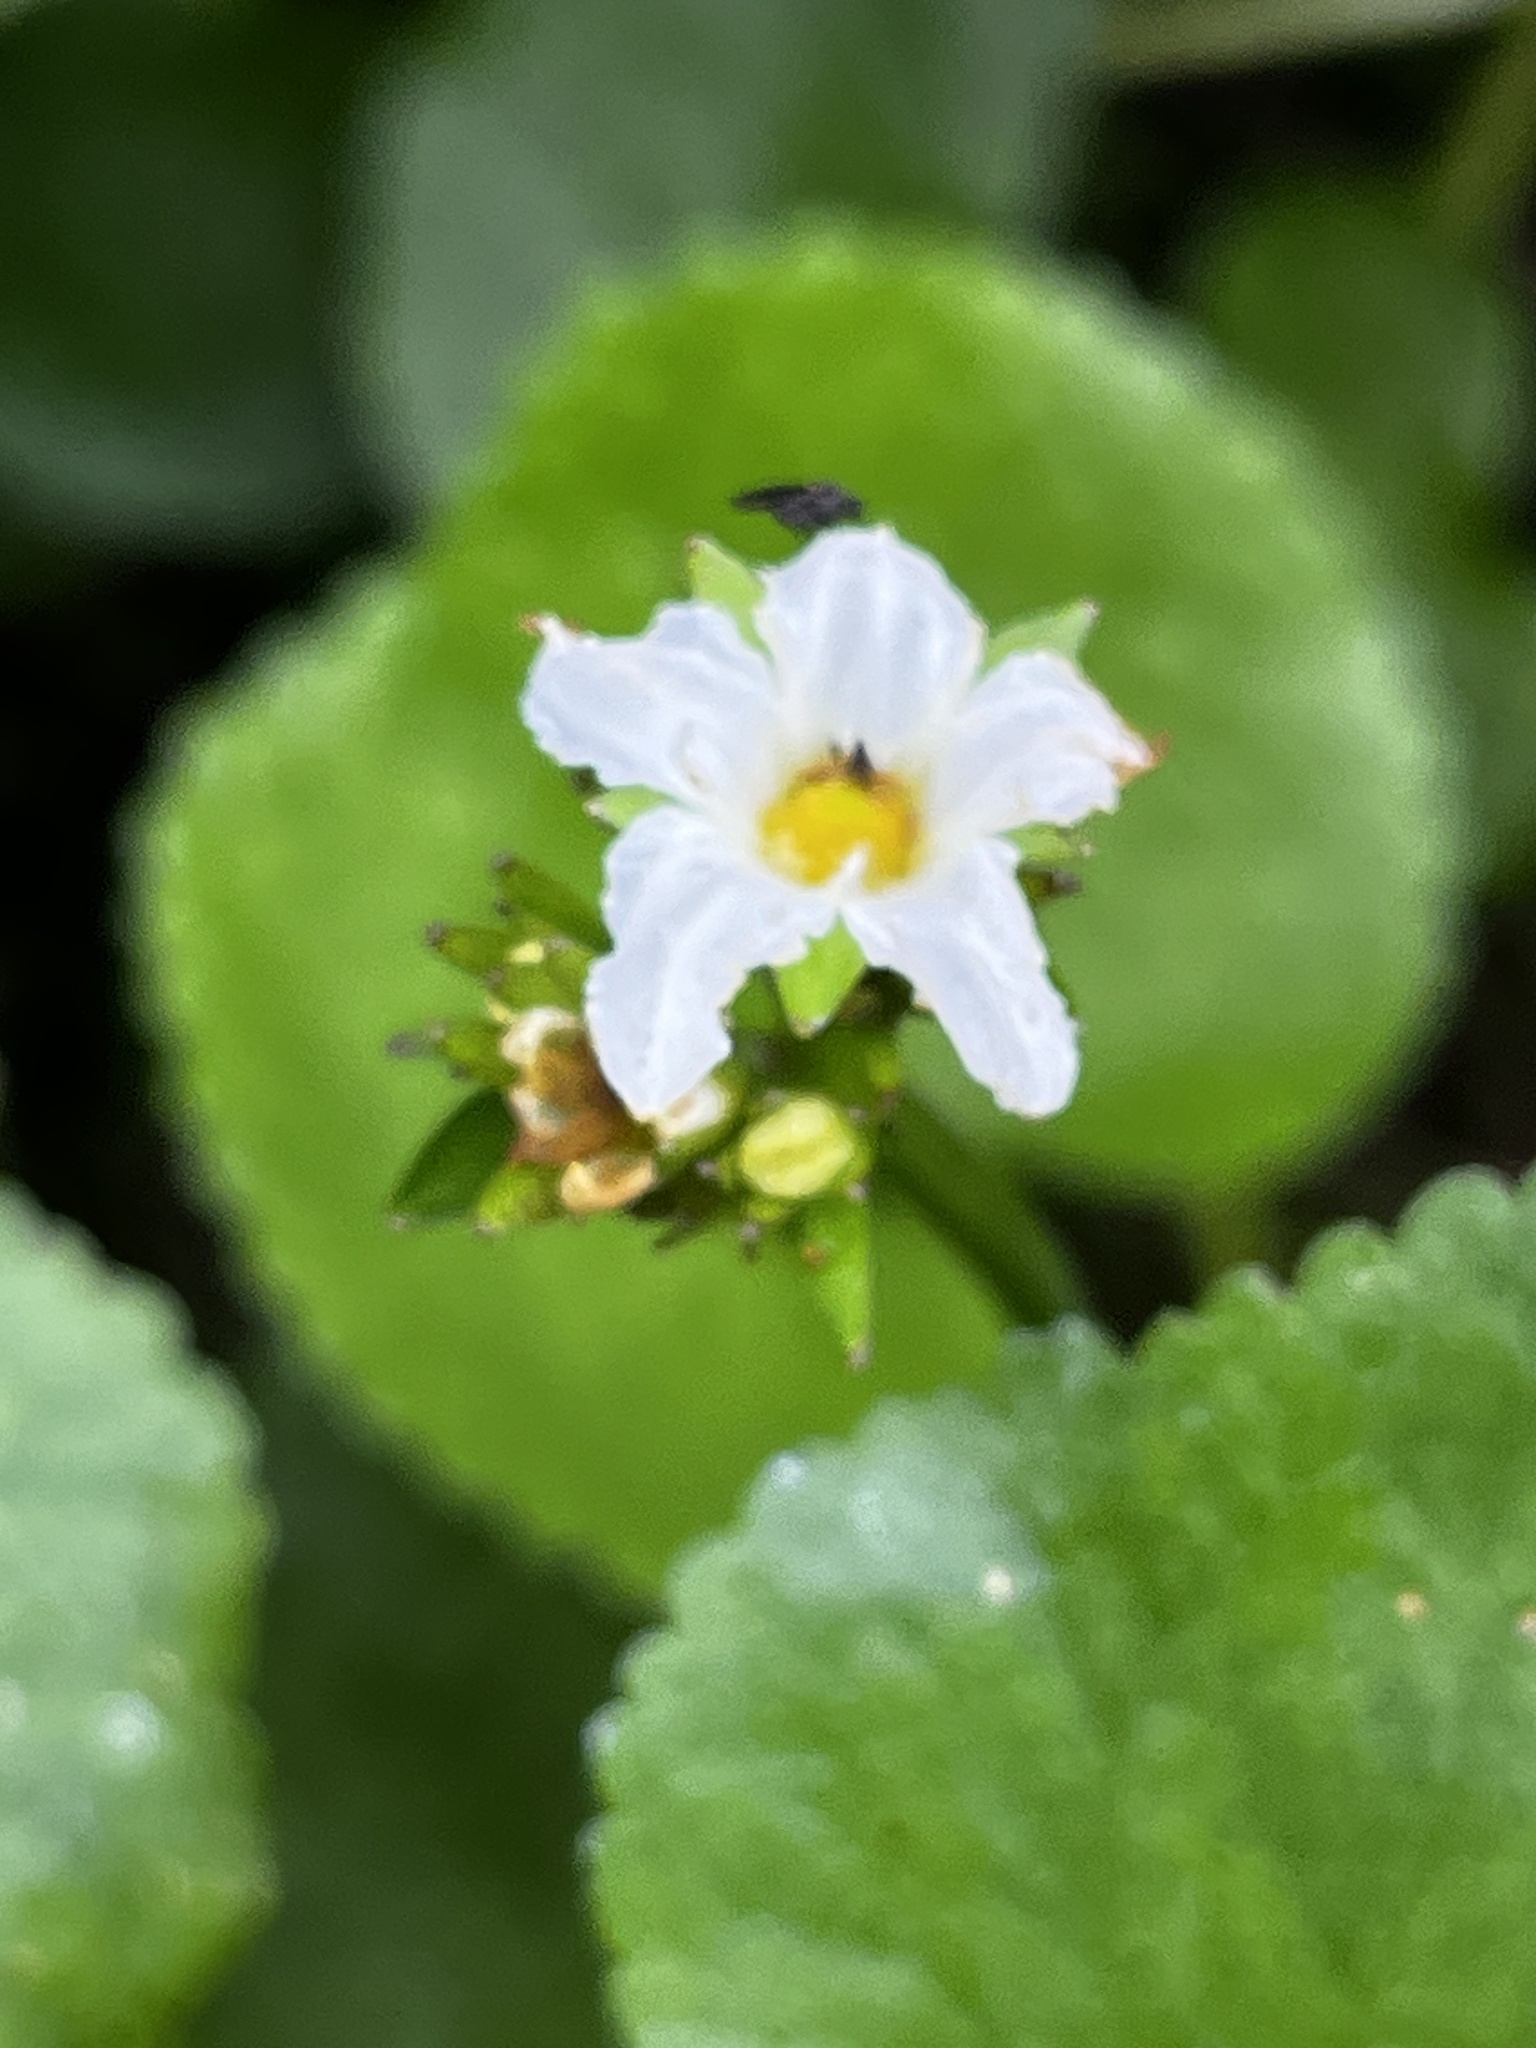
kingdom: Plantae
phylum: Tracheophyta
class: Magnoliopsida
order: Asterales
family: Menyanthaceae
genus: Nephrophyllidium
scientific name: Nephrophyllidium crista-galli
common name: Deer-cabbage
